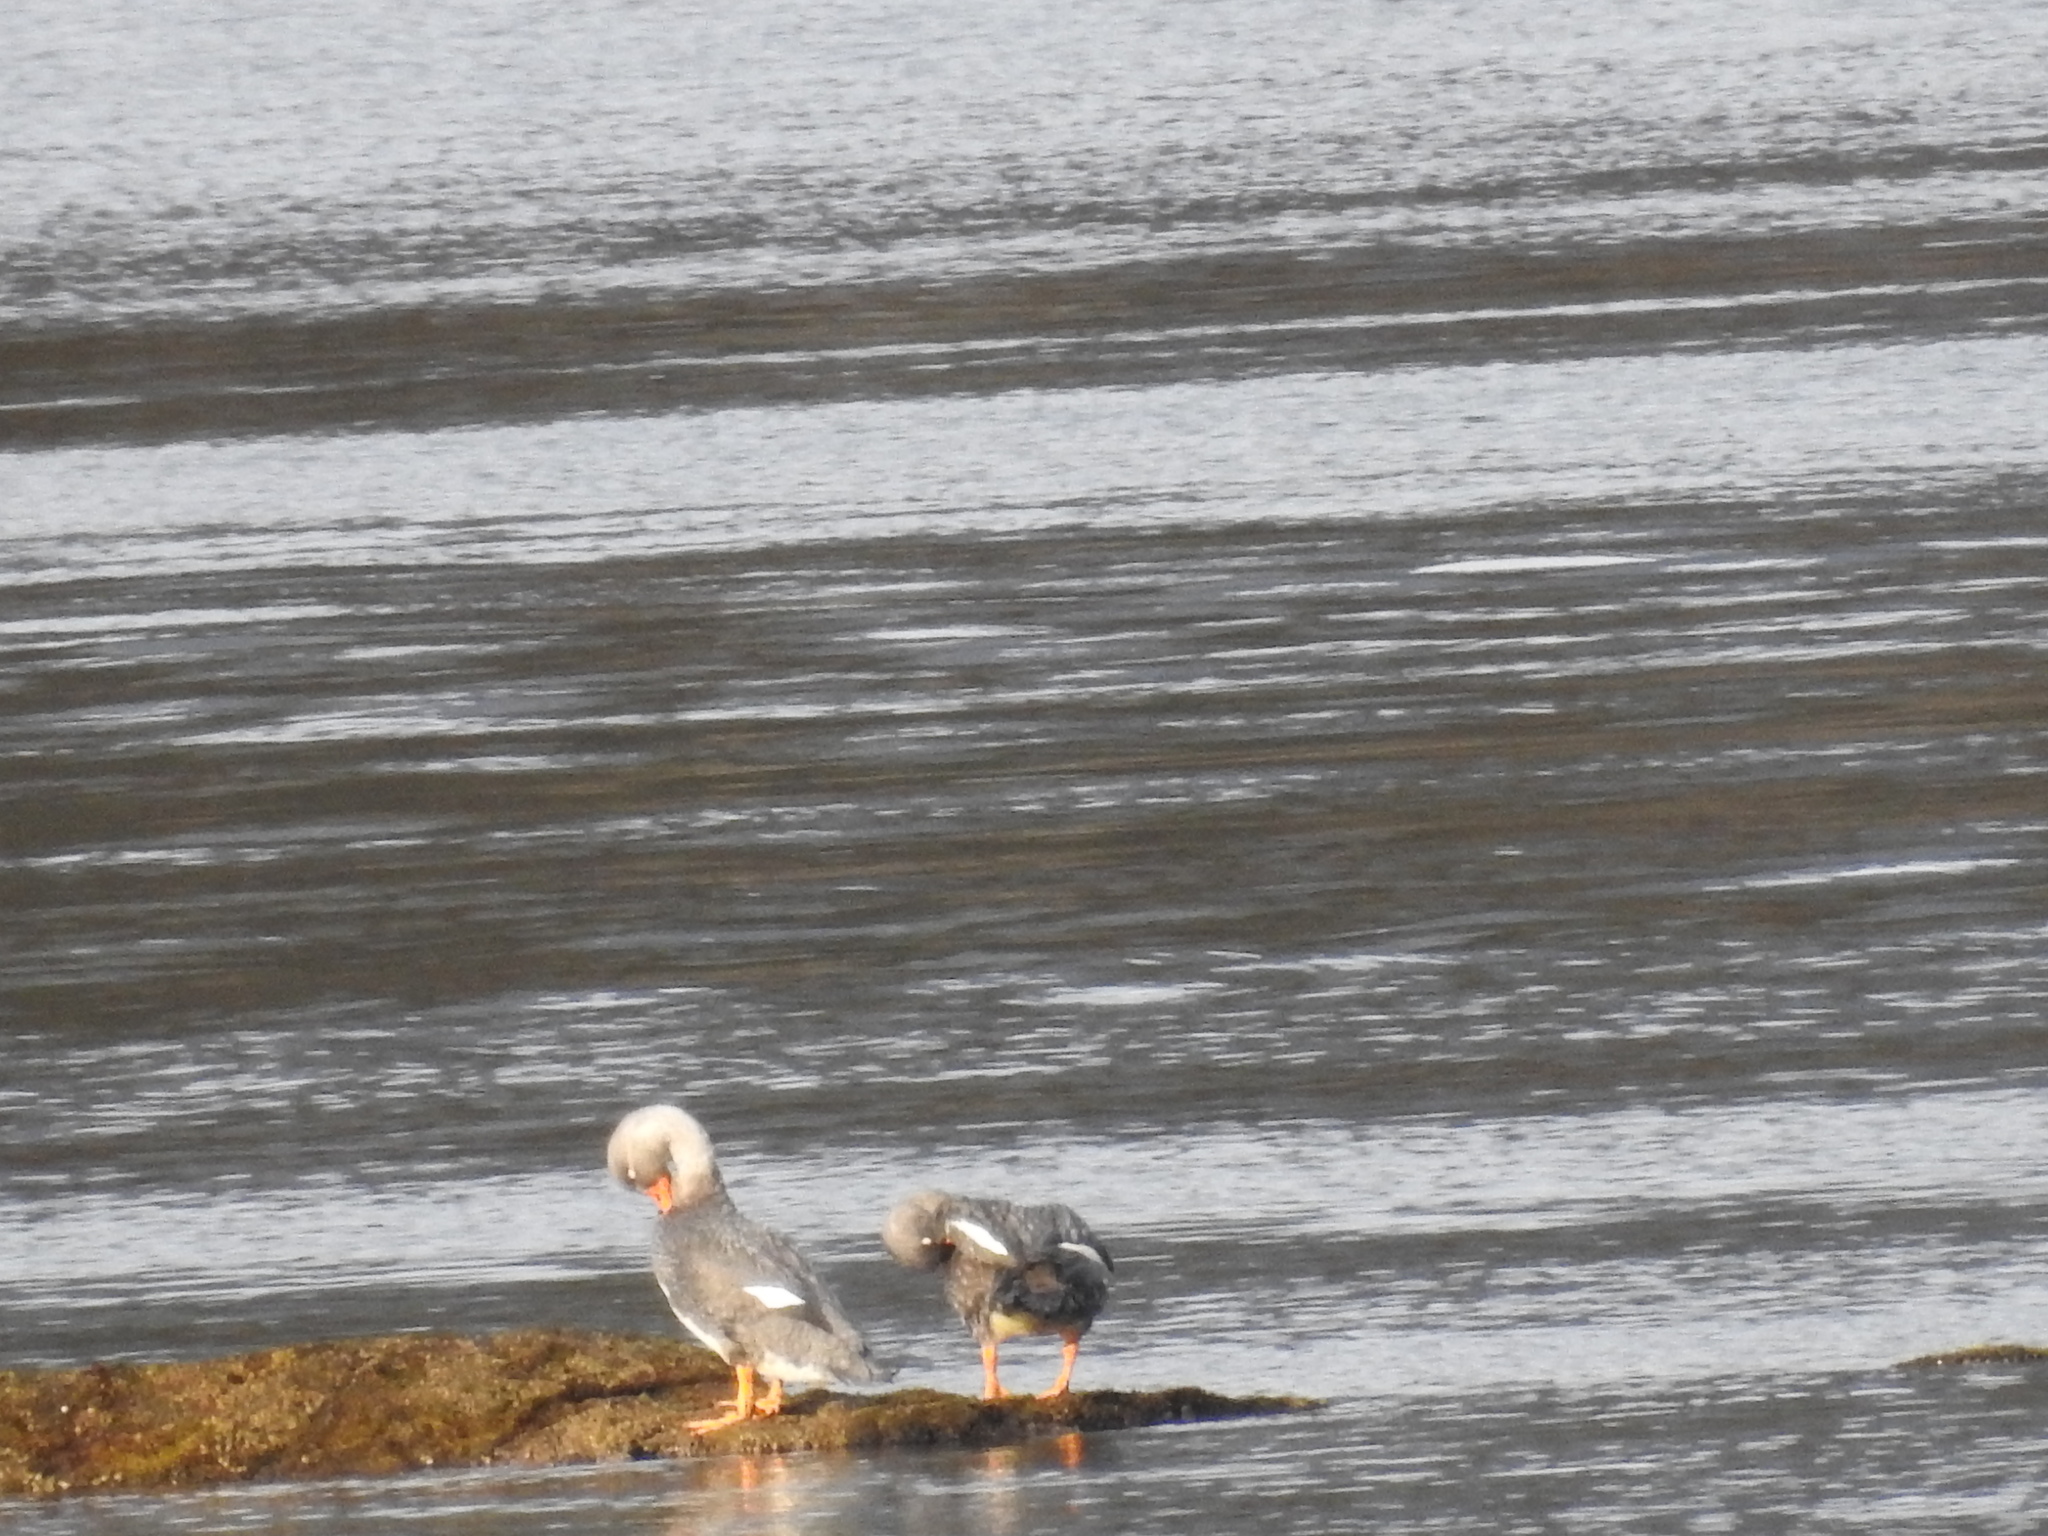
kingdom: Animalia
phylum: Chordata
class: Aves
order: Anseriformes
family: Anatidae
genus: Tachyeres
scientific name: Tachyeres pteneres
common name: Fuegian steamer duck
